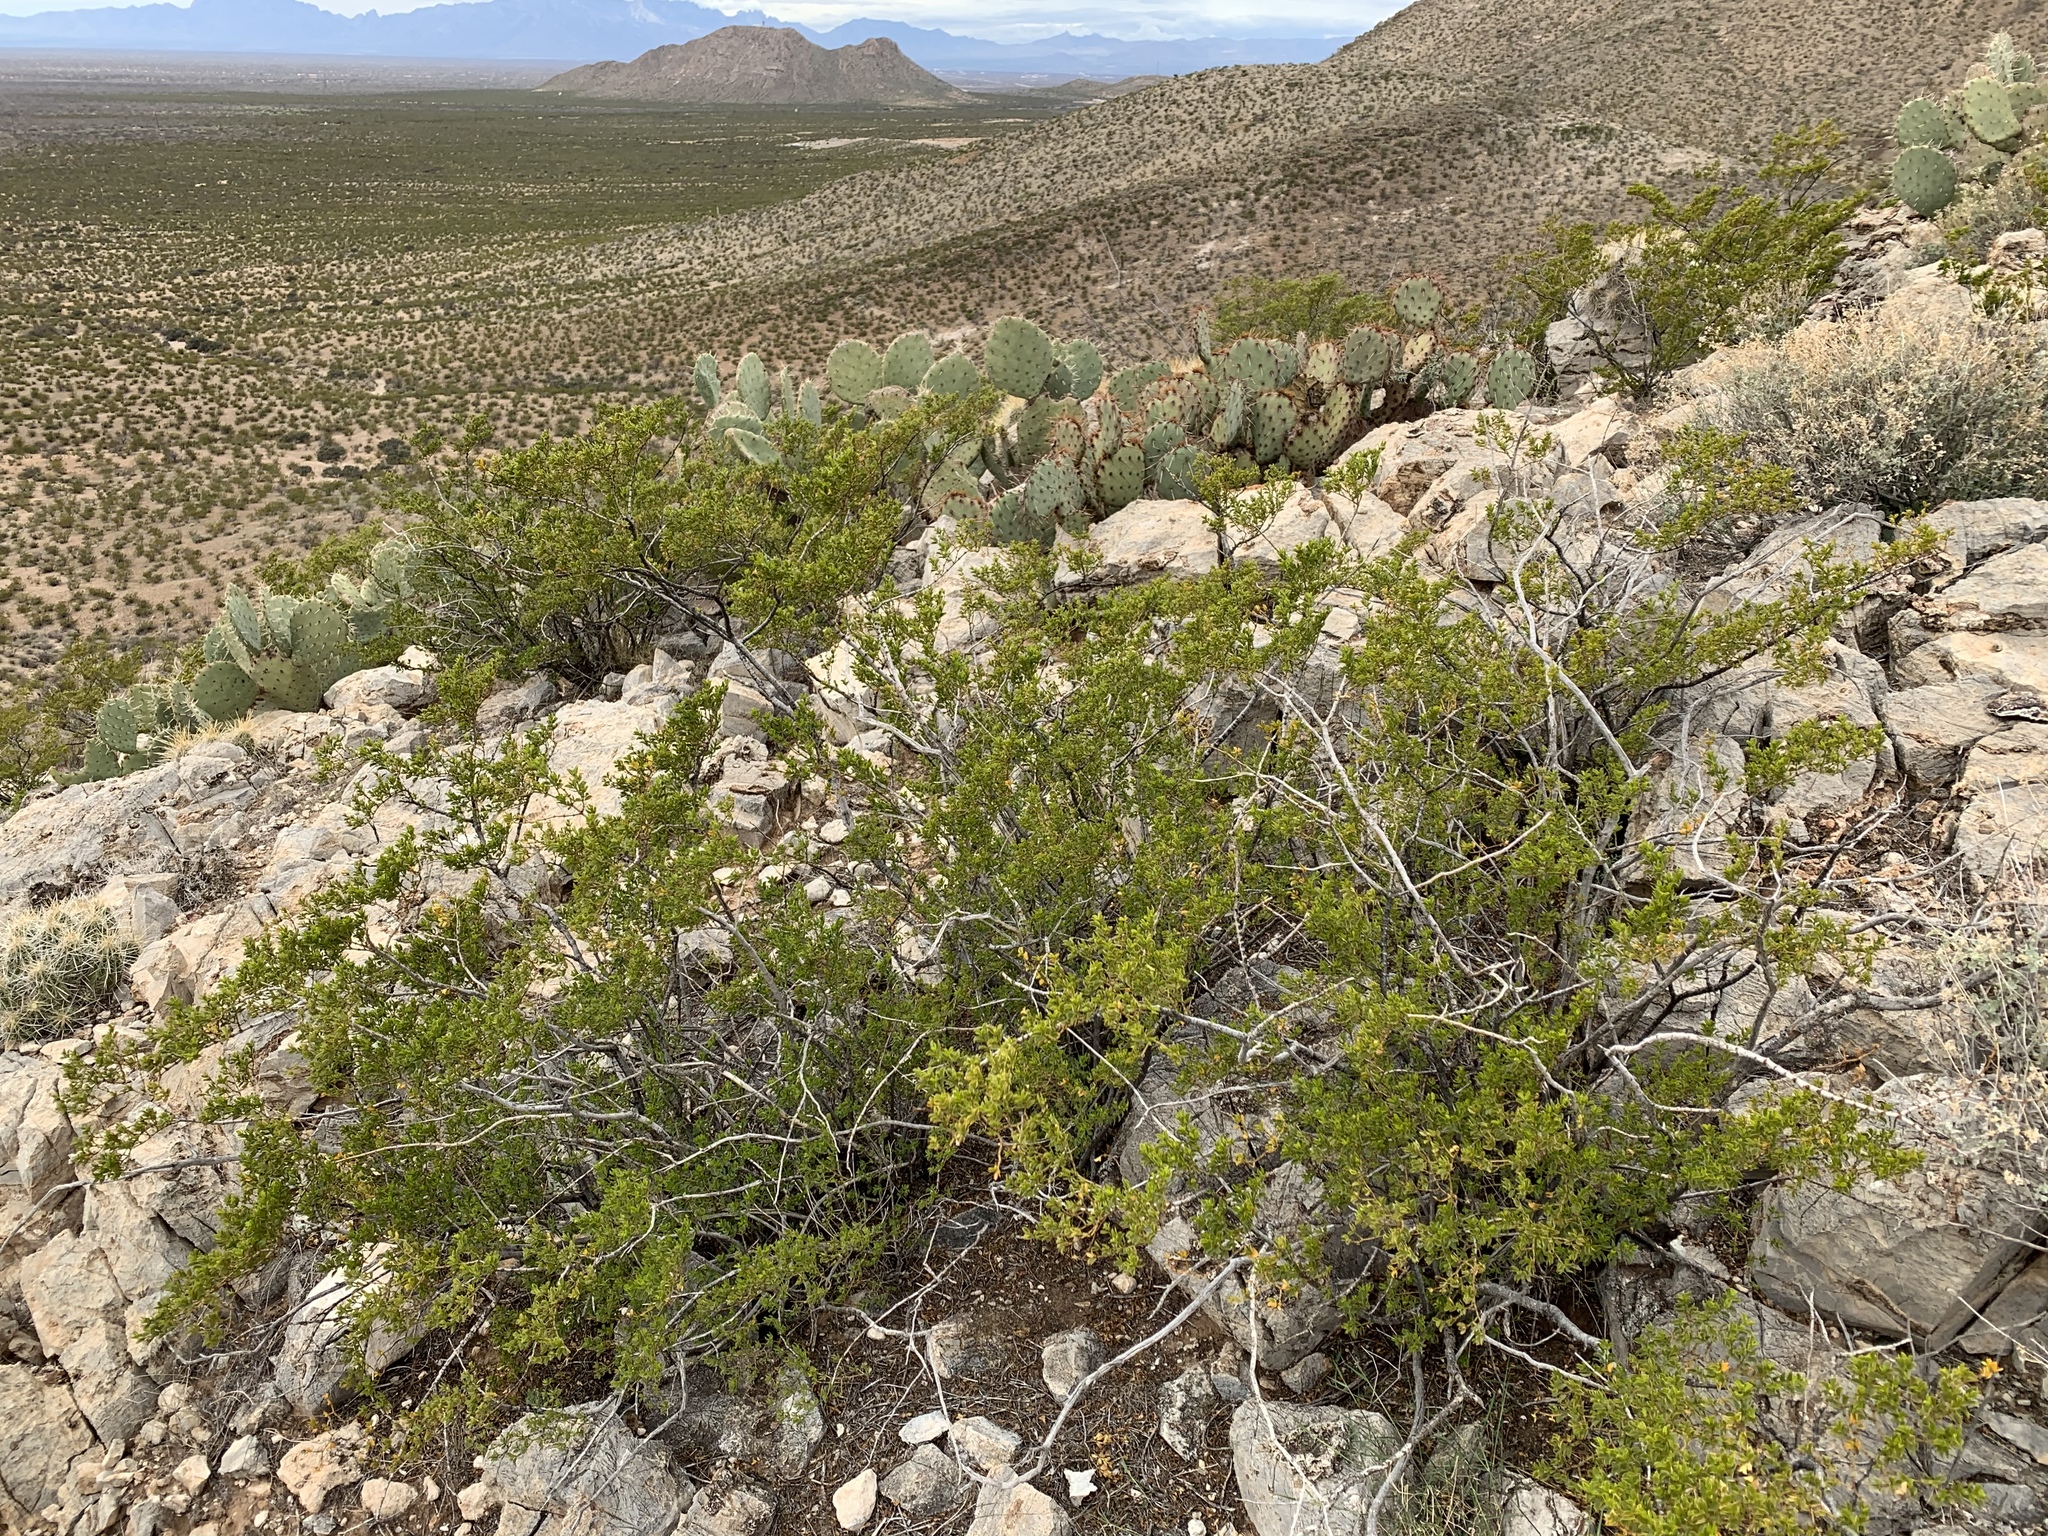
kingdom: Plantae
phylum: Tracheophyta
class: Magnoliopsida
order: Zygophyllales
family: Zygophyllaceae
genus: Larrea
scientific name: Larrea tridentata
